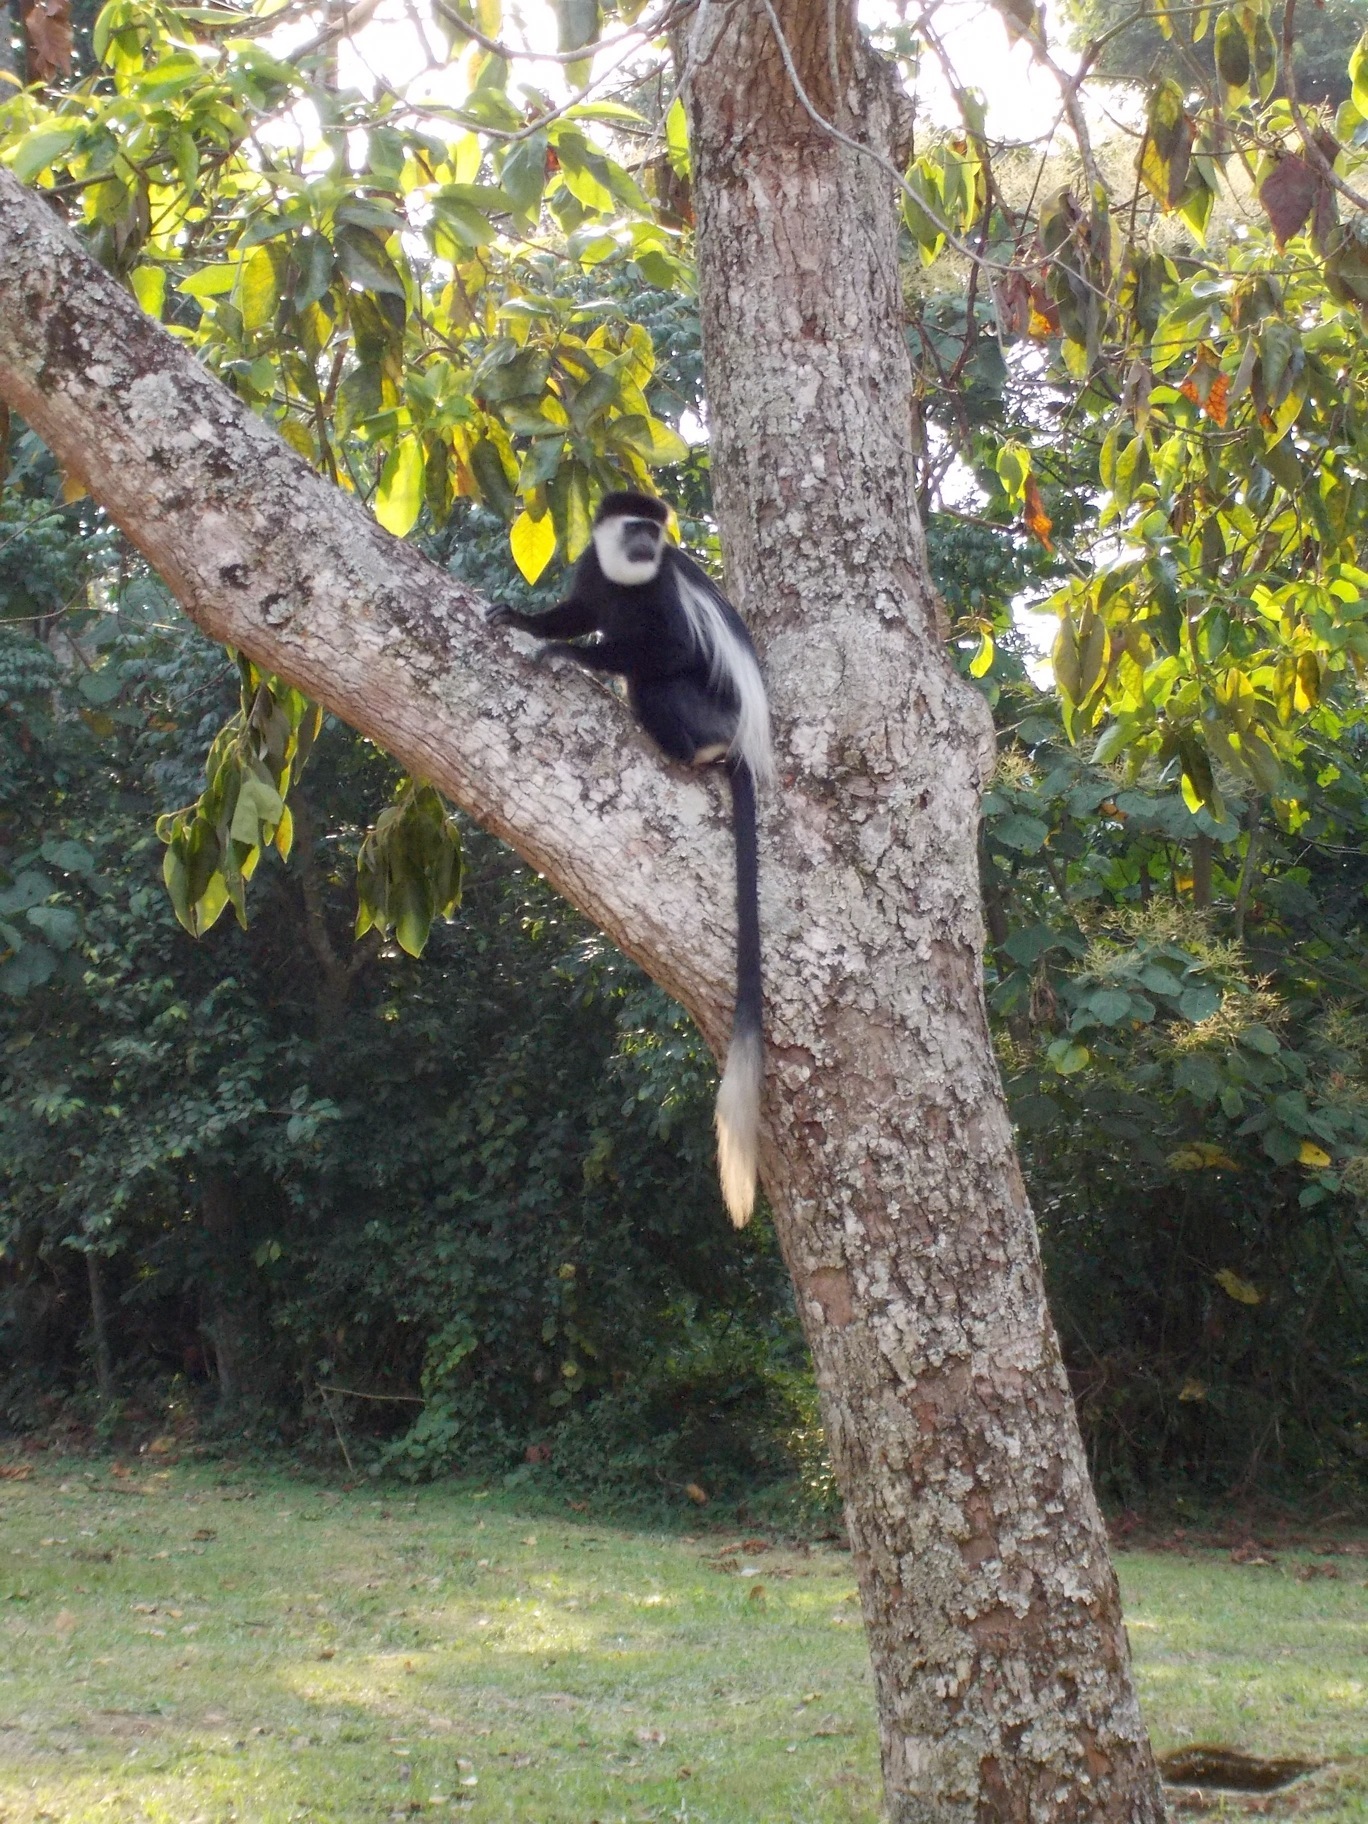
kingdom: Animalia
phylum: Chordata
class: Mammalia
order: Primates
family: Cercopithecidae
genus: Colobus
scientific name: Colobus guereza
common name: Mantled guereza
